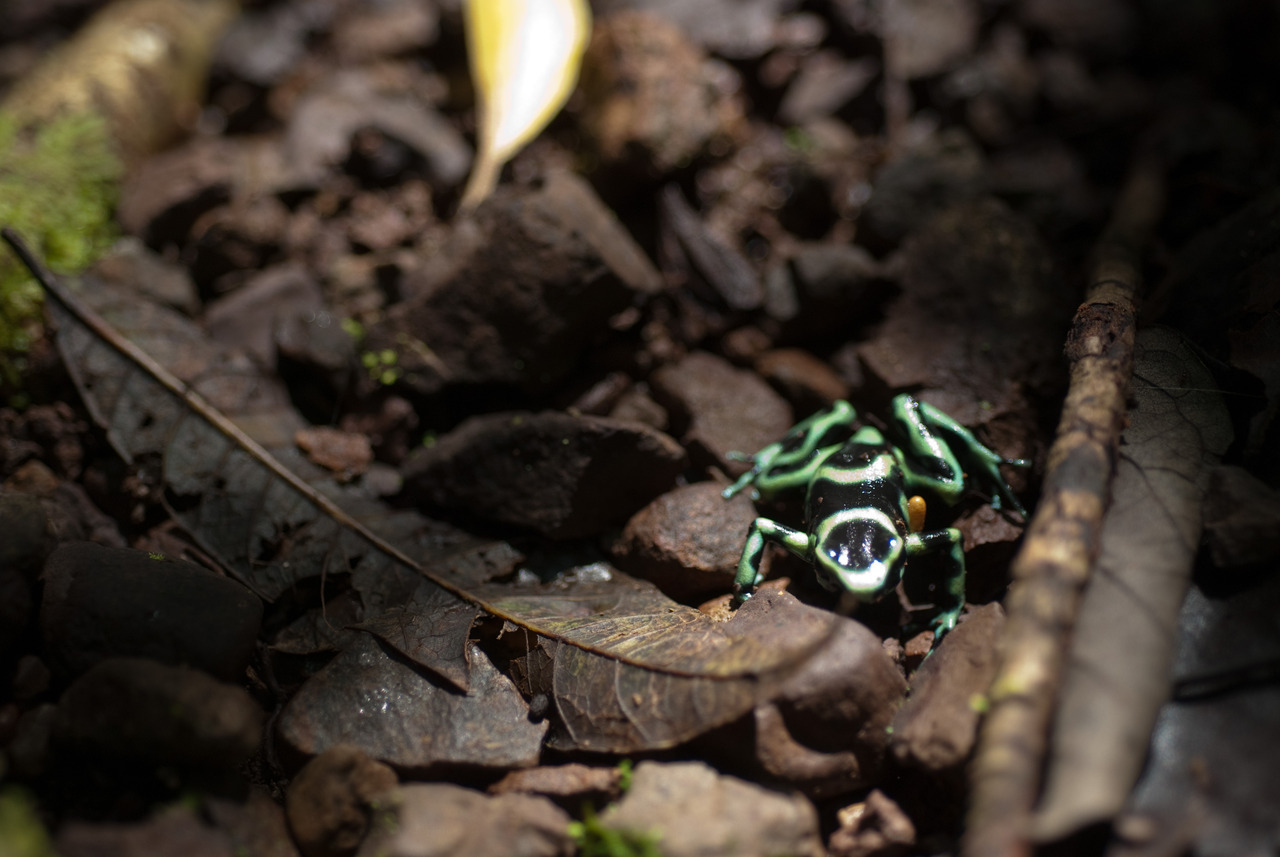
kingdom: Animalia
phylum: Chordata
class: Amphibia
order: Anura
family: Dendrobatidae
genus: Dendrobates
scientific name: Dendrobates auratus
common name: Green and black poison dart frog
